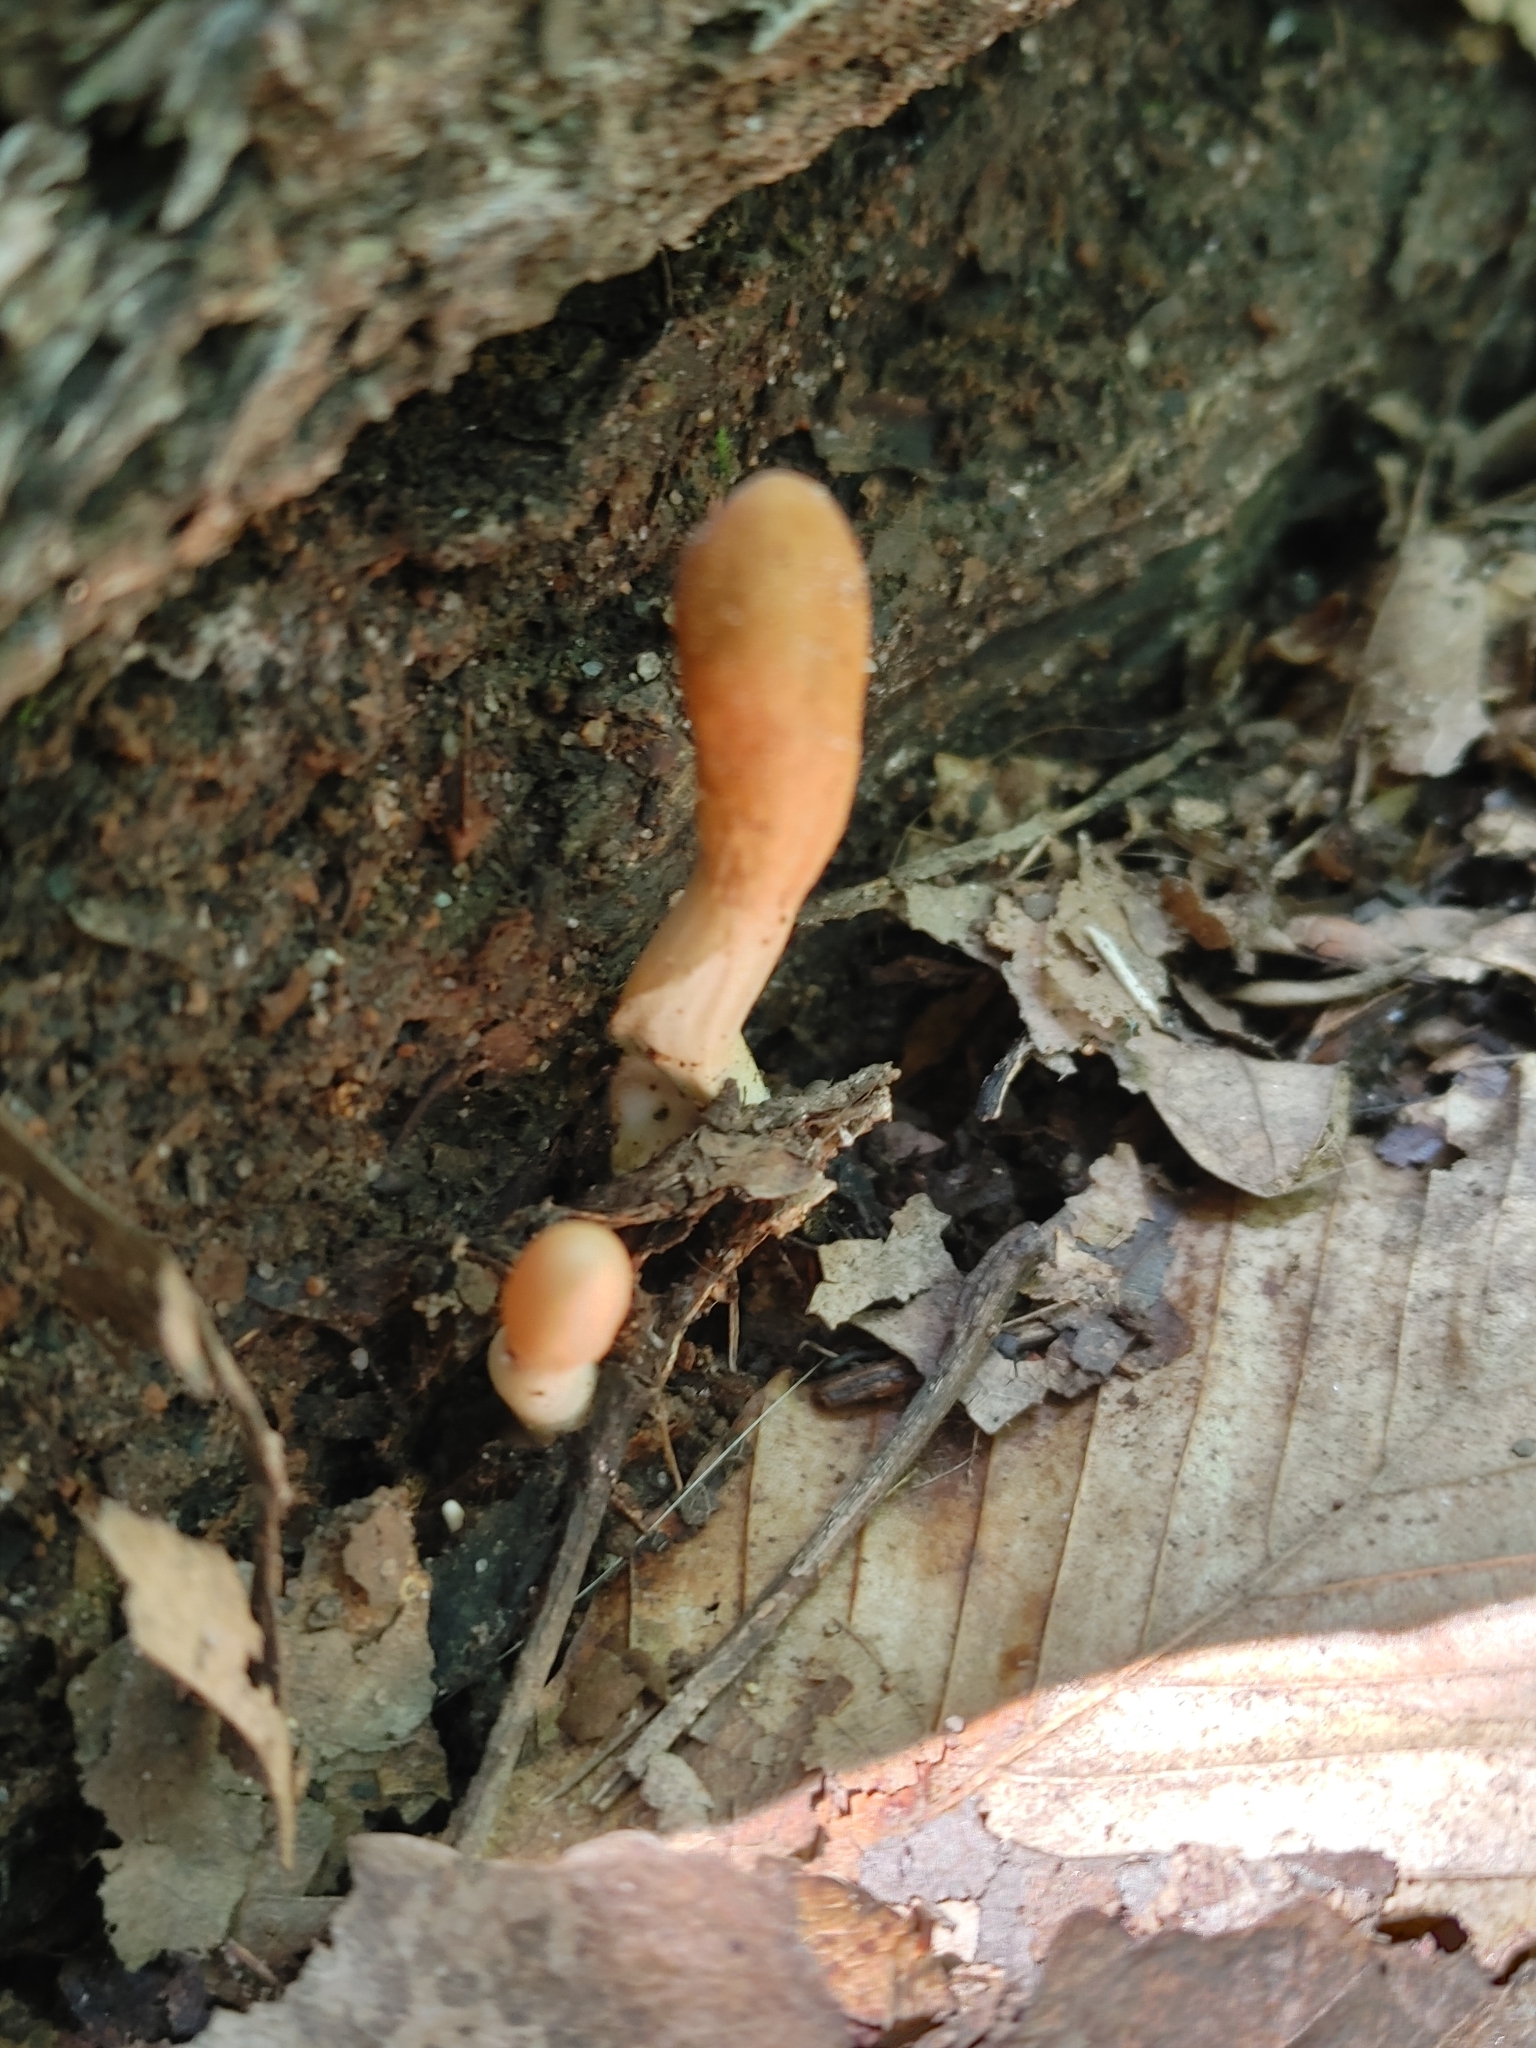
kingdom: Fungi
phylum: Ascomycota
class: Sordariomycetes
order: Hypocreales
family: Hypocreaceae
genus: Trichoderma
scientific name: Trichoderma alutaceum
